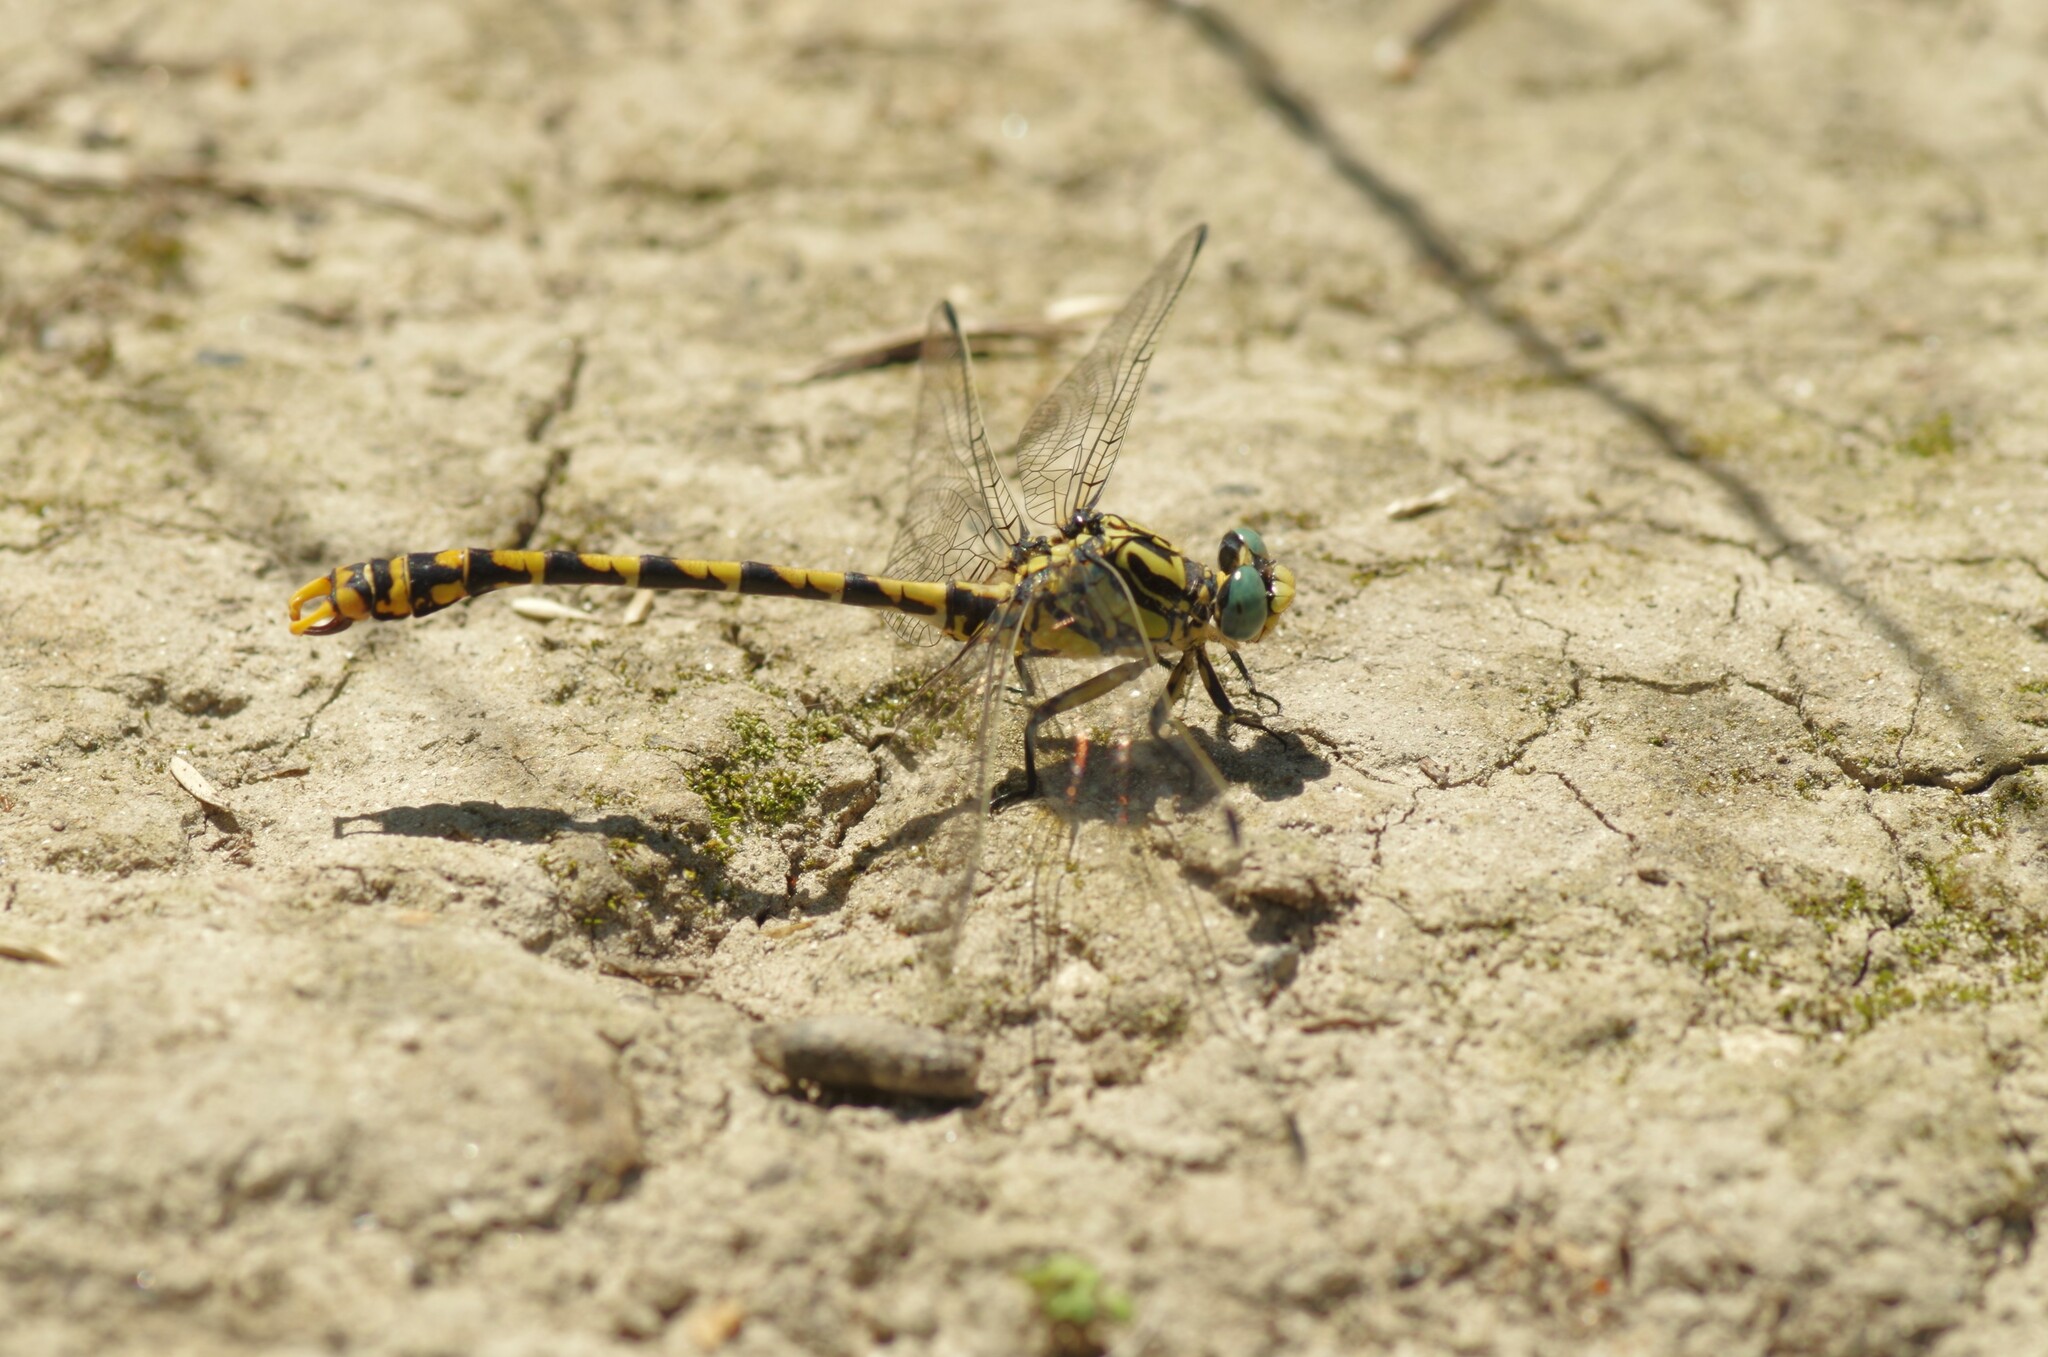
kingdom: Animalia
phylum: Arthropoda
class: Insecta
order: Odonata
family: Gomphidae
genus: Onychogomphus
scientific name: Onychogomphus uncatus
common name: Large pincertail
